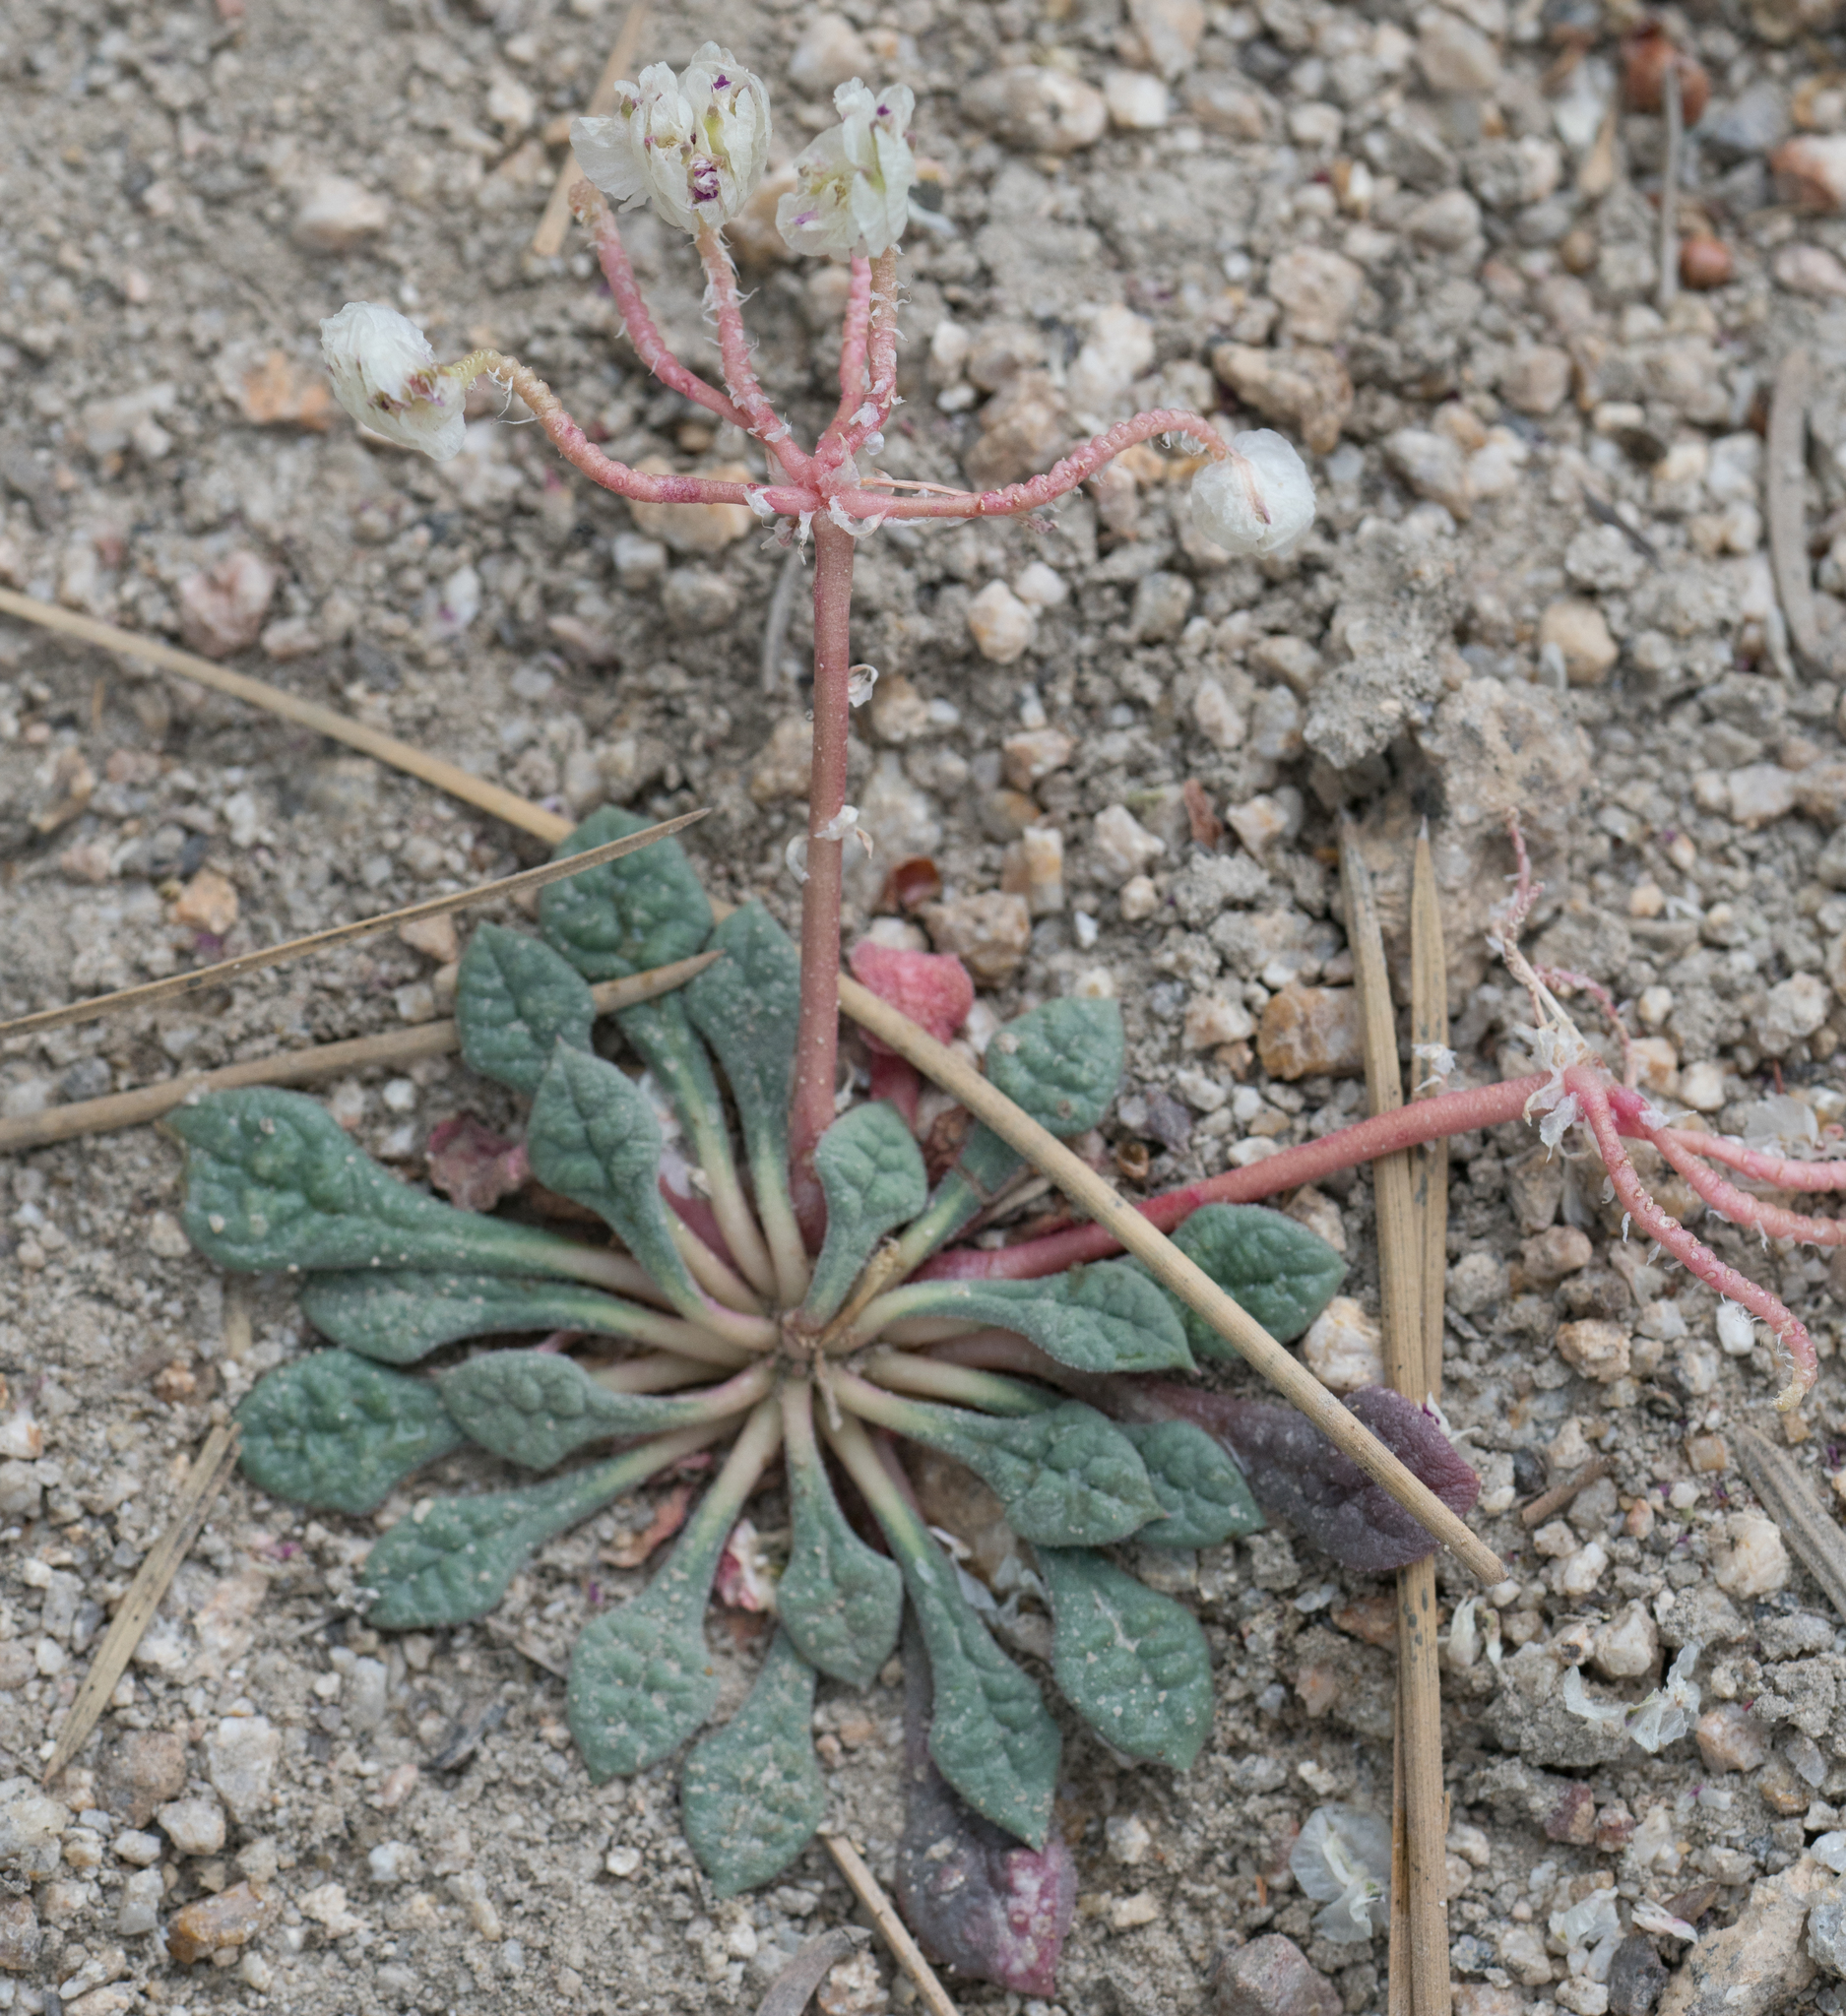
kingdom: Plantae
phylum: Tracheophyta
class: Magnoliopsida
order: Caryophyllales
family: Montiaceae
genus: Calyptridium
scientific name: Calyptridium monospermum
